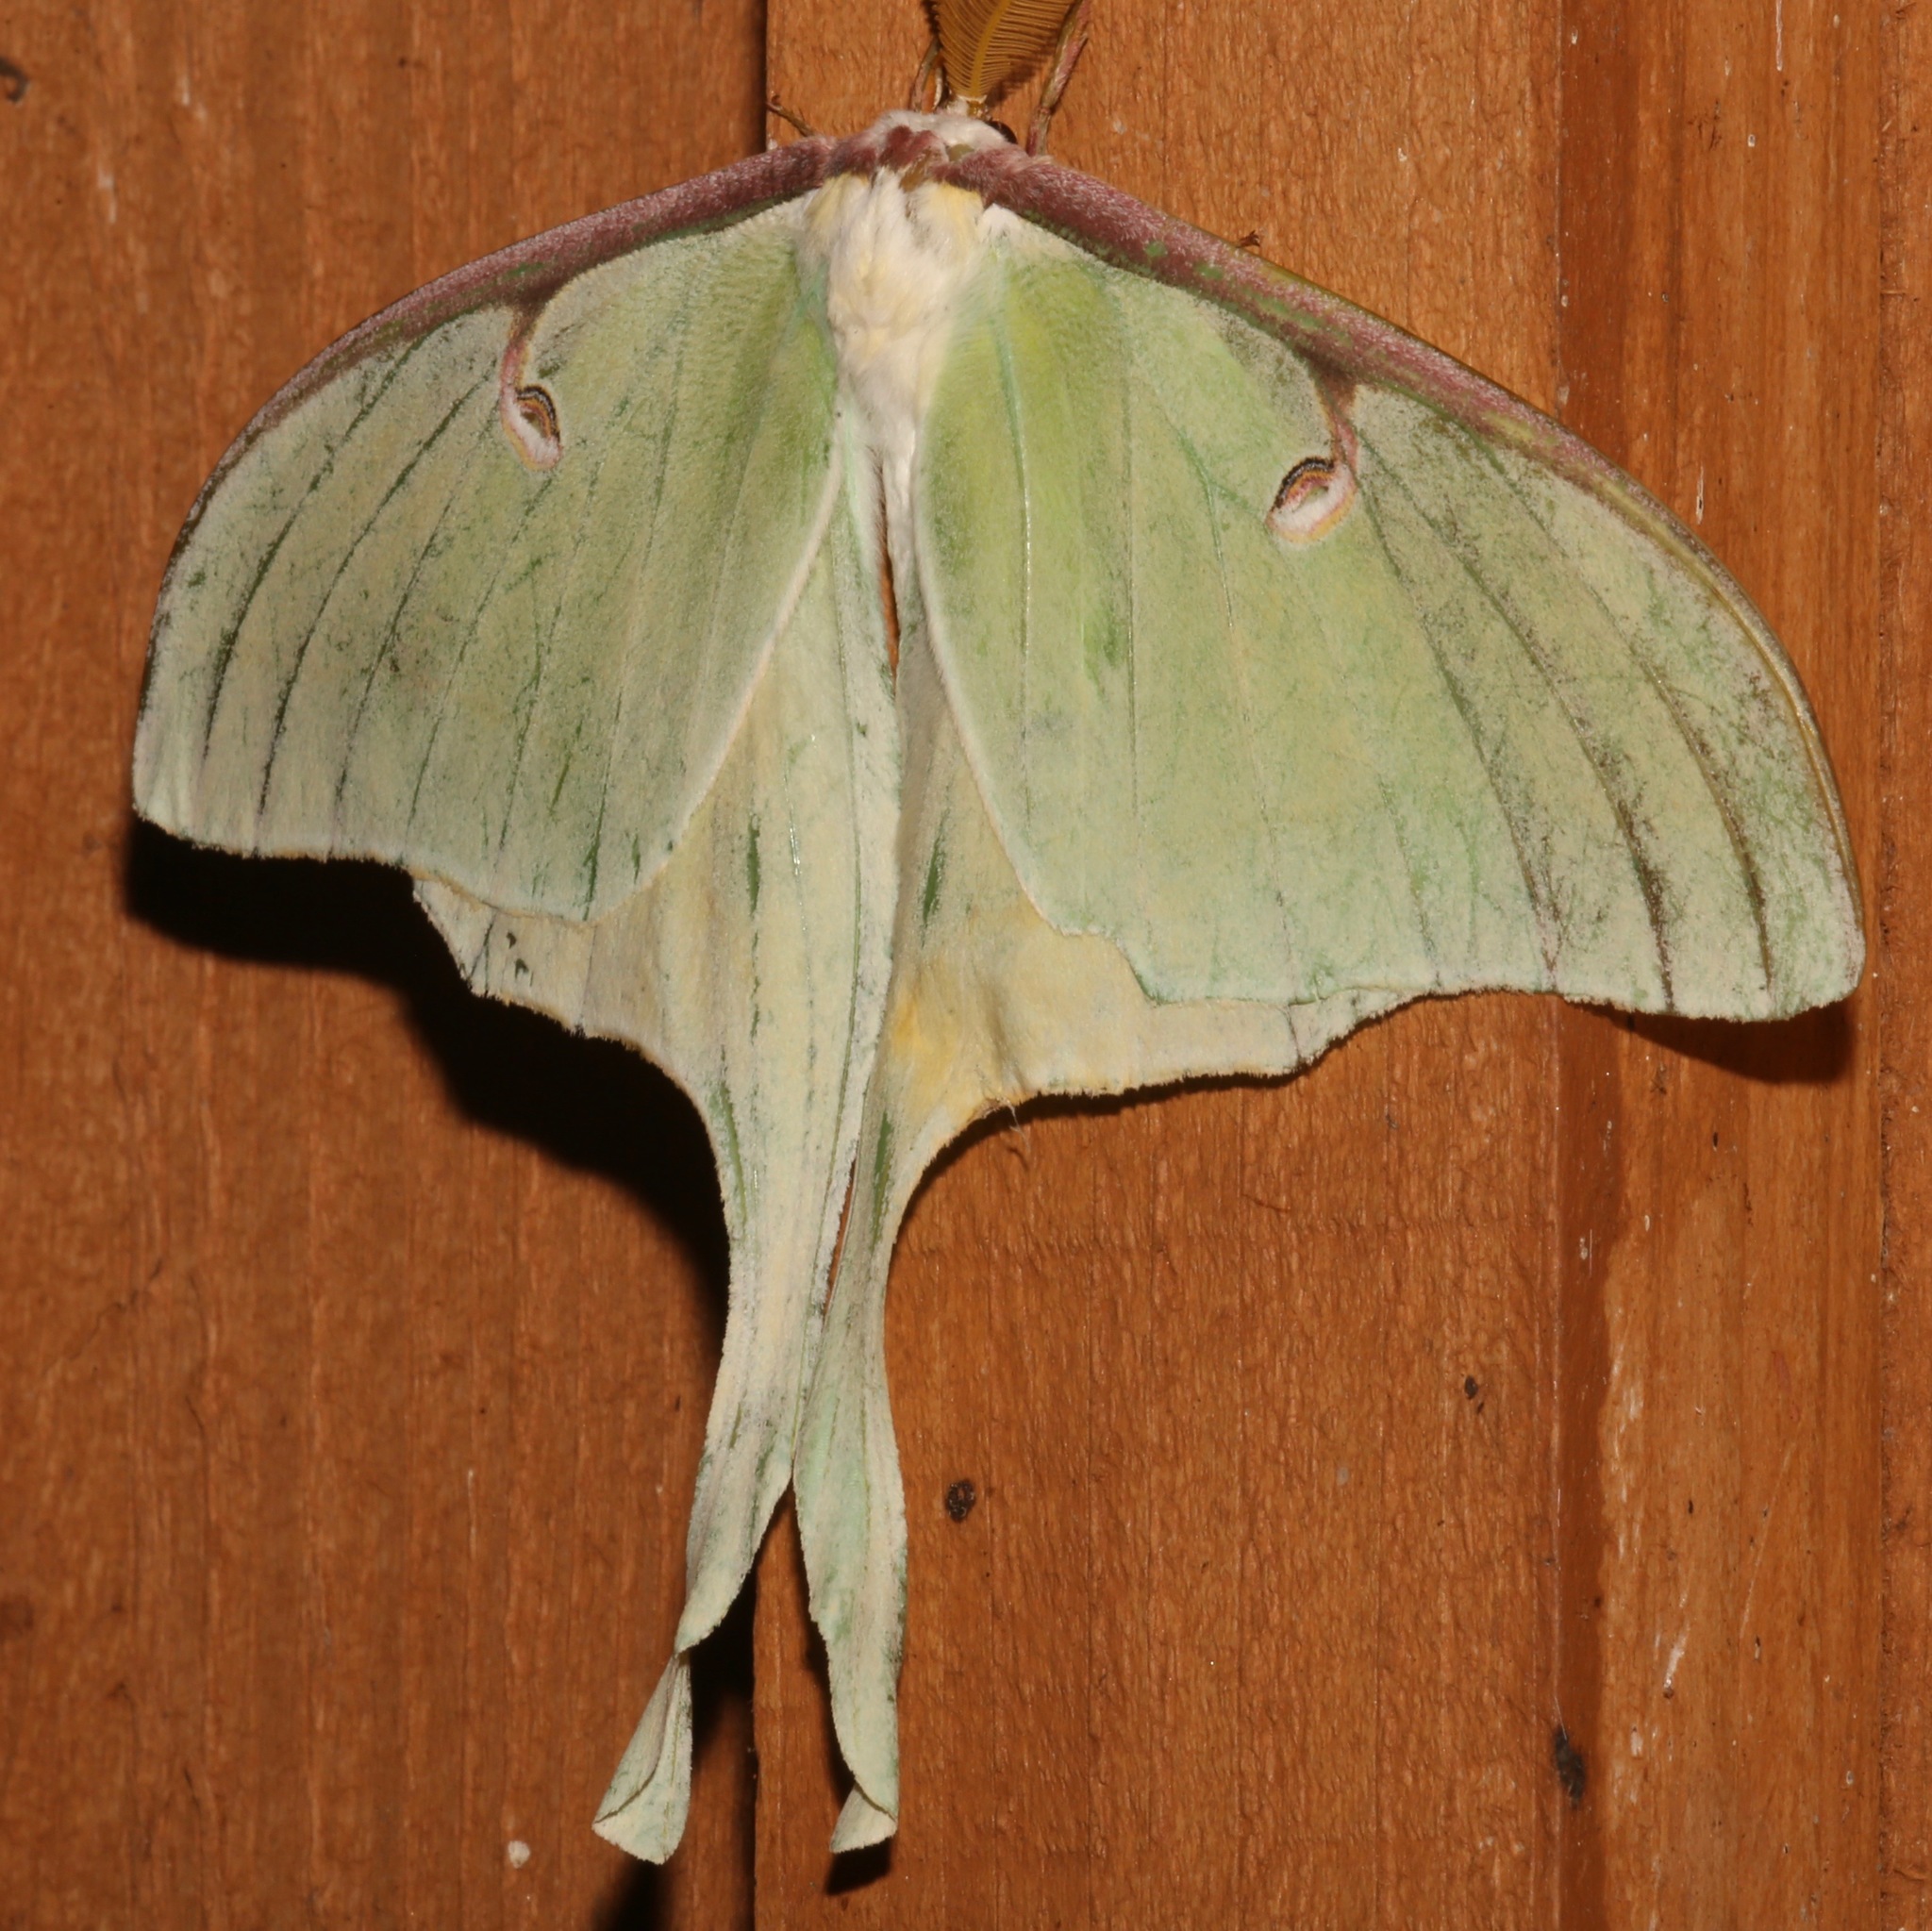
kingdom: Animalia
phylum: Arthropoda
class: Insecta
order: Lepidoptera
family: Saturniidae
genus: Actias
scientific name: Actias luna
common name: Luna moth
